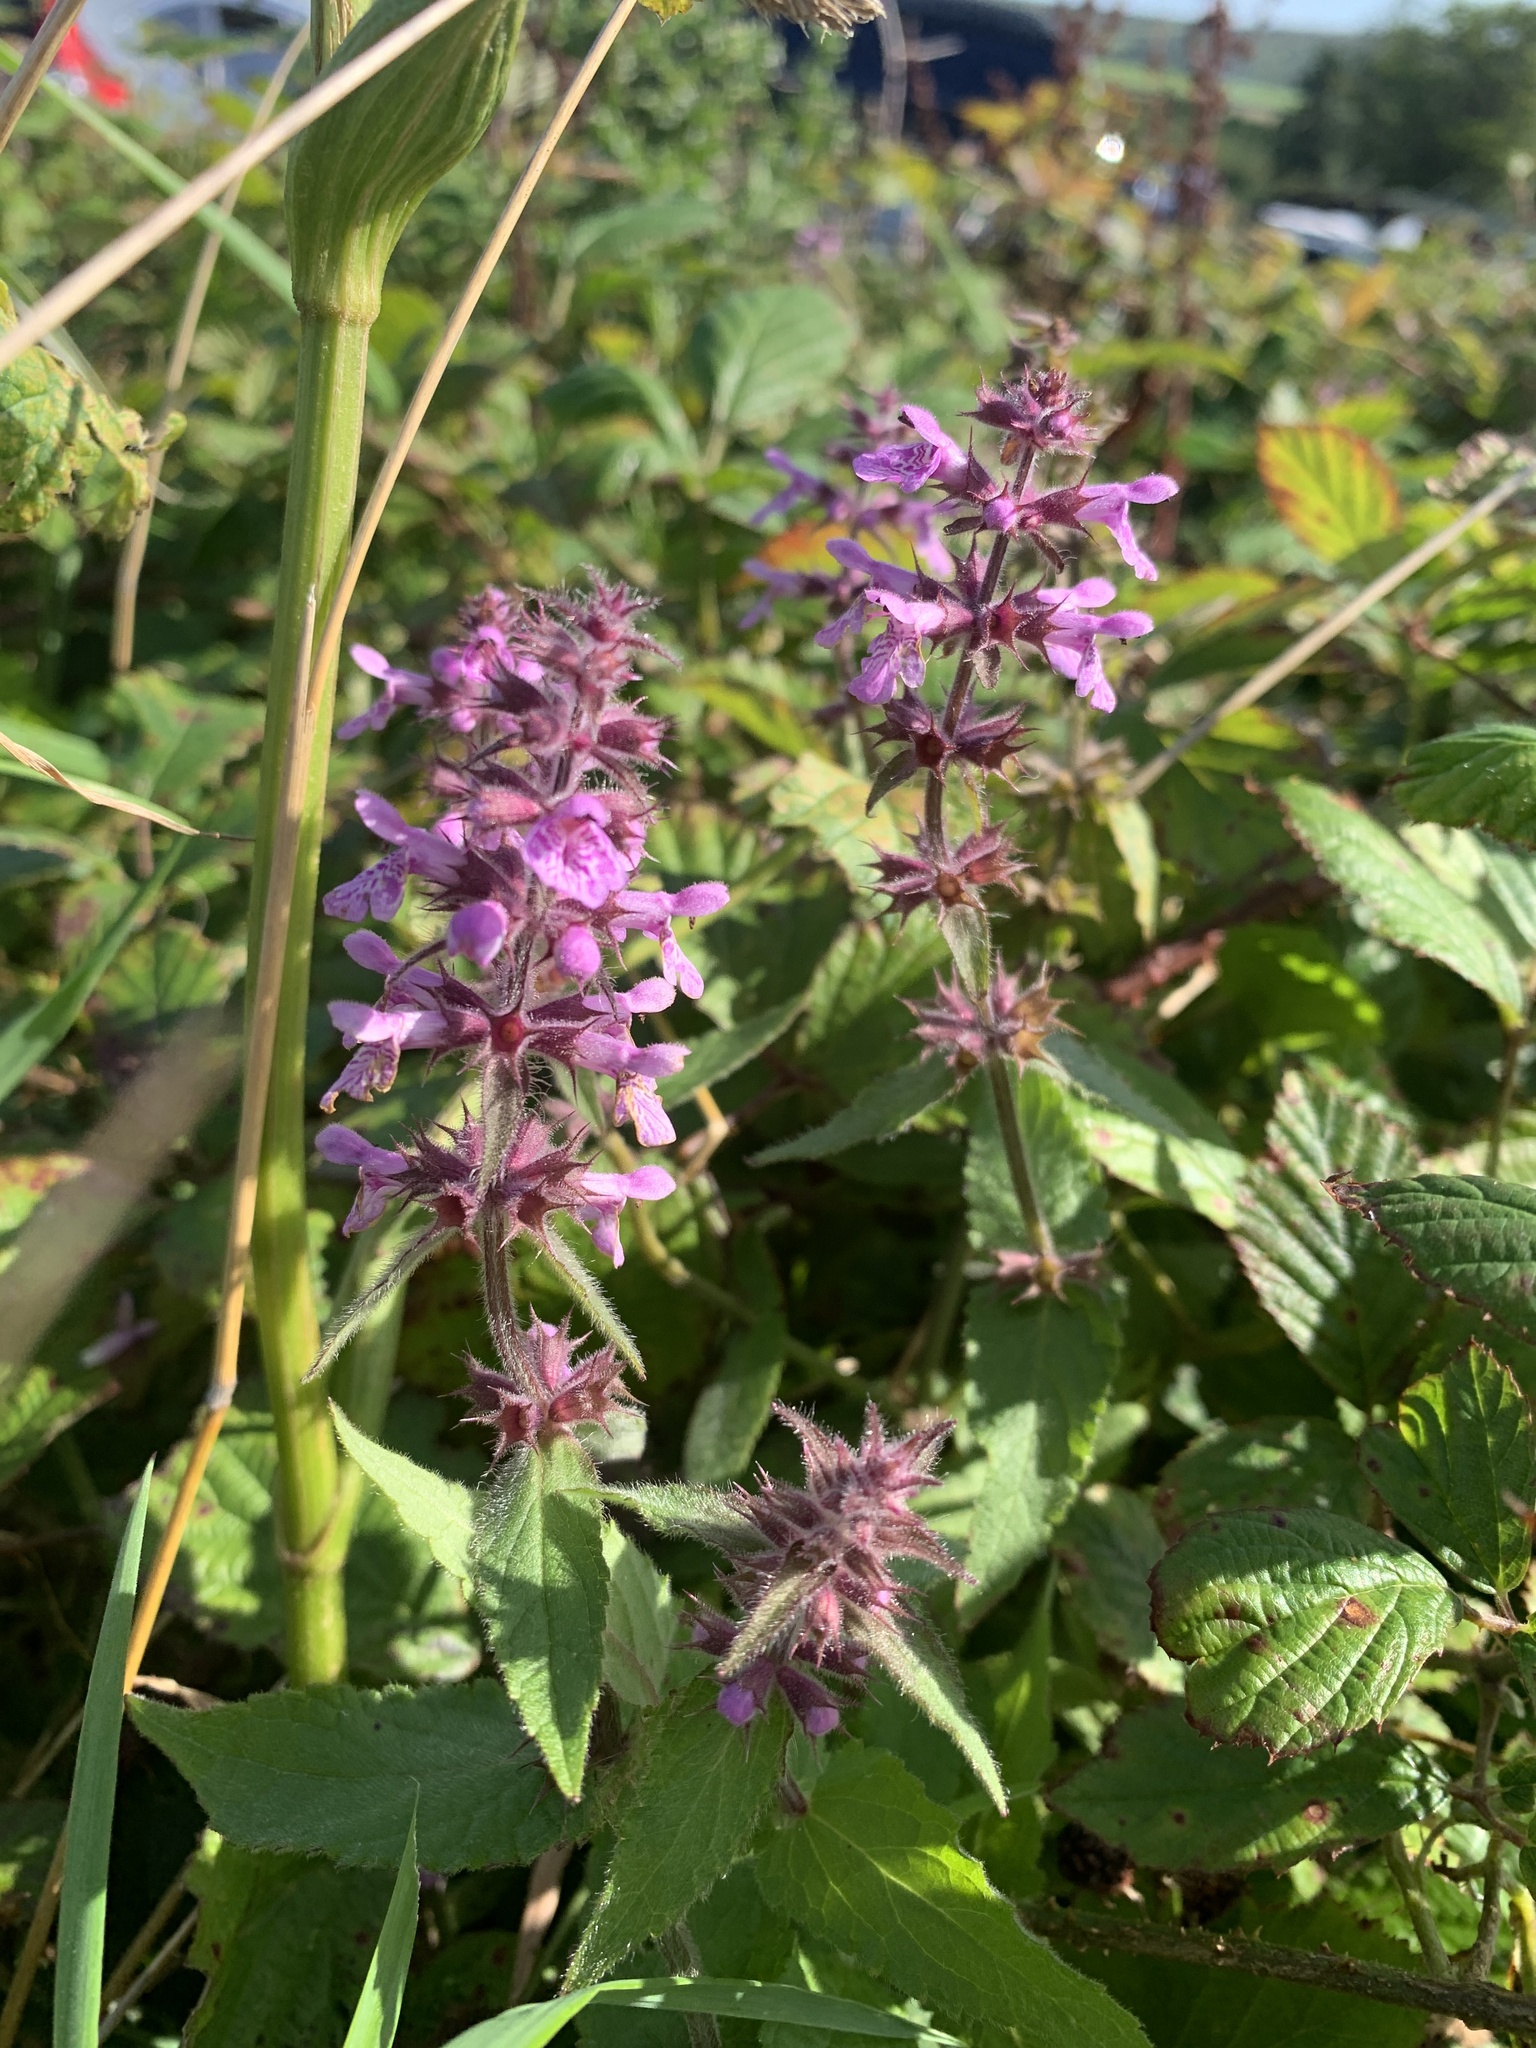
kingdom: Plantae
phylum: Tracheophyta
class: Magnoliopsida
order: Lamiales
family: Lamiaceae
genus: Stachys
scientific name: Stachys sylvatica
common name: Hedge woundwort
